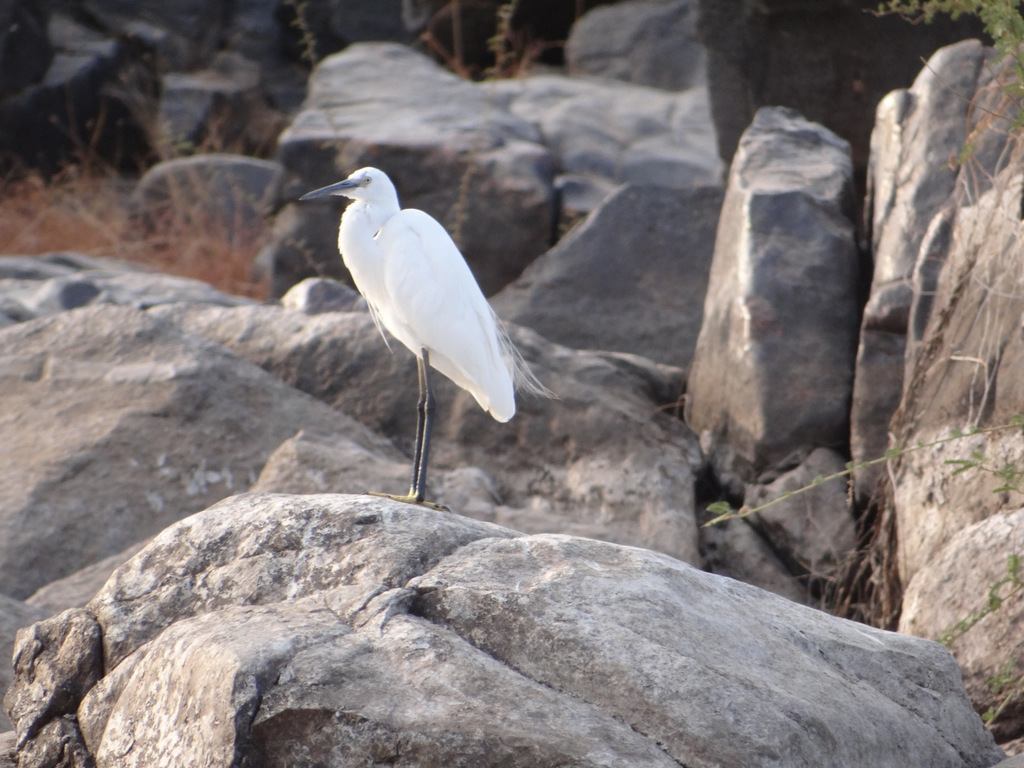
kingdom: Animalia
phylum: Chordata
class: Aves
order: Pelecaniformes
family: Ardeidae
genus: Egretta
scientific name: Egretta garzetta
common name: Little egret
